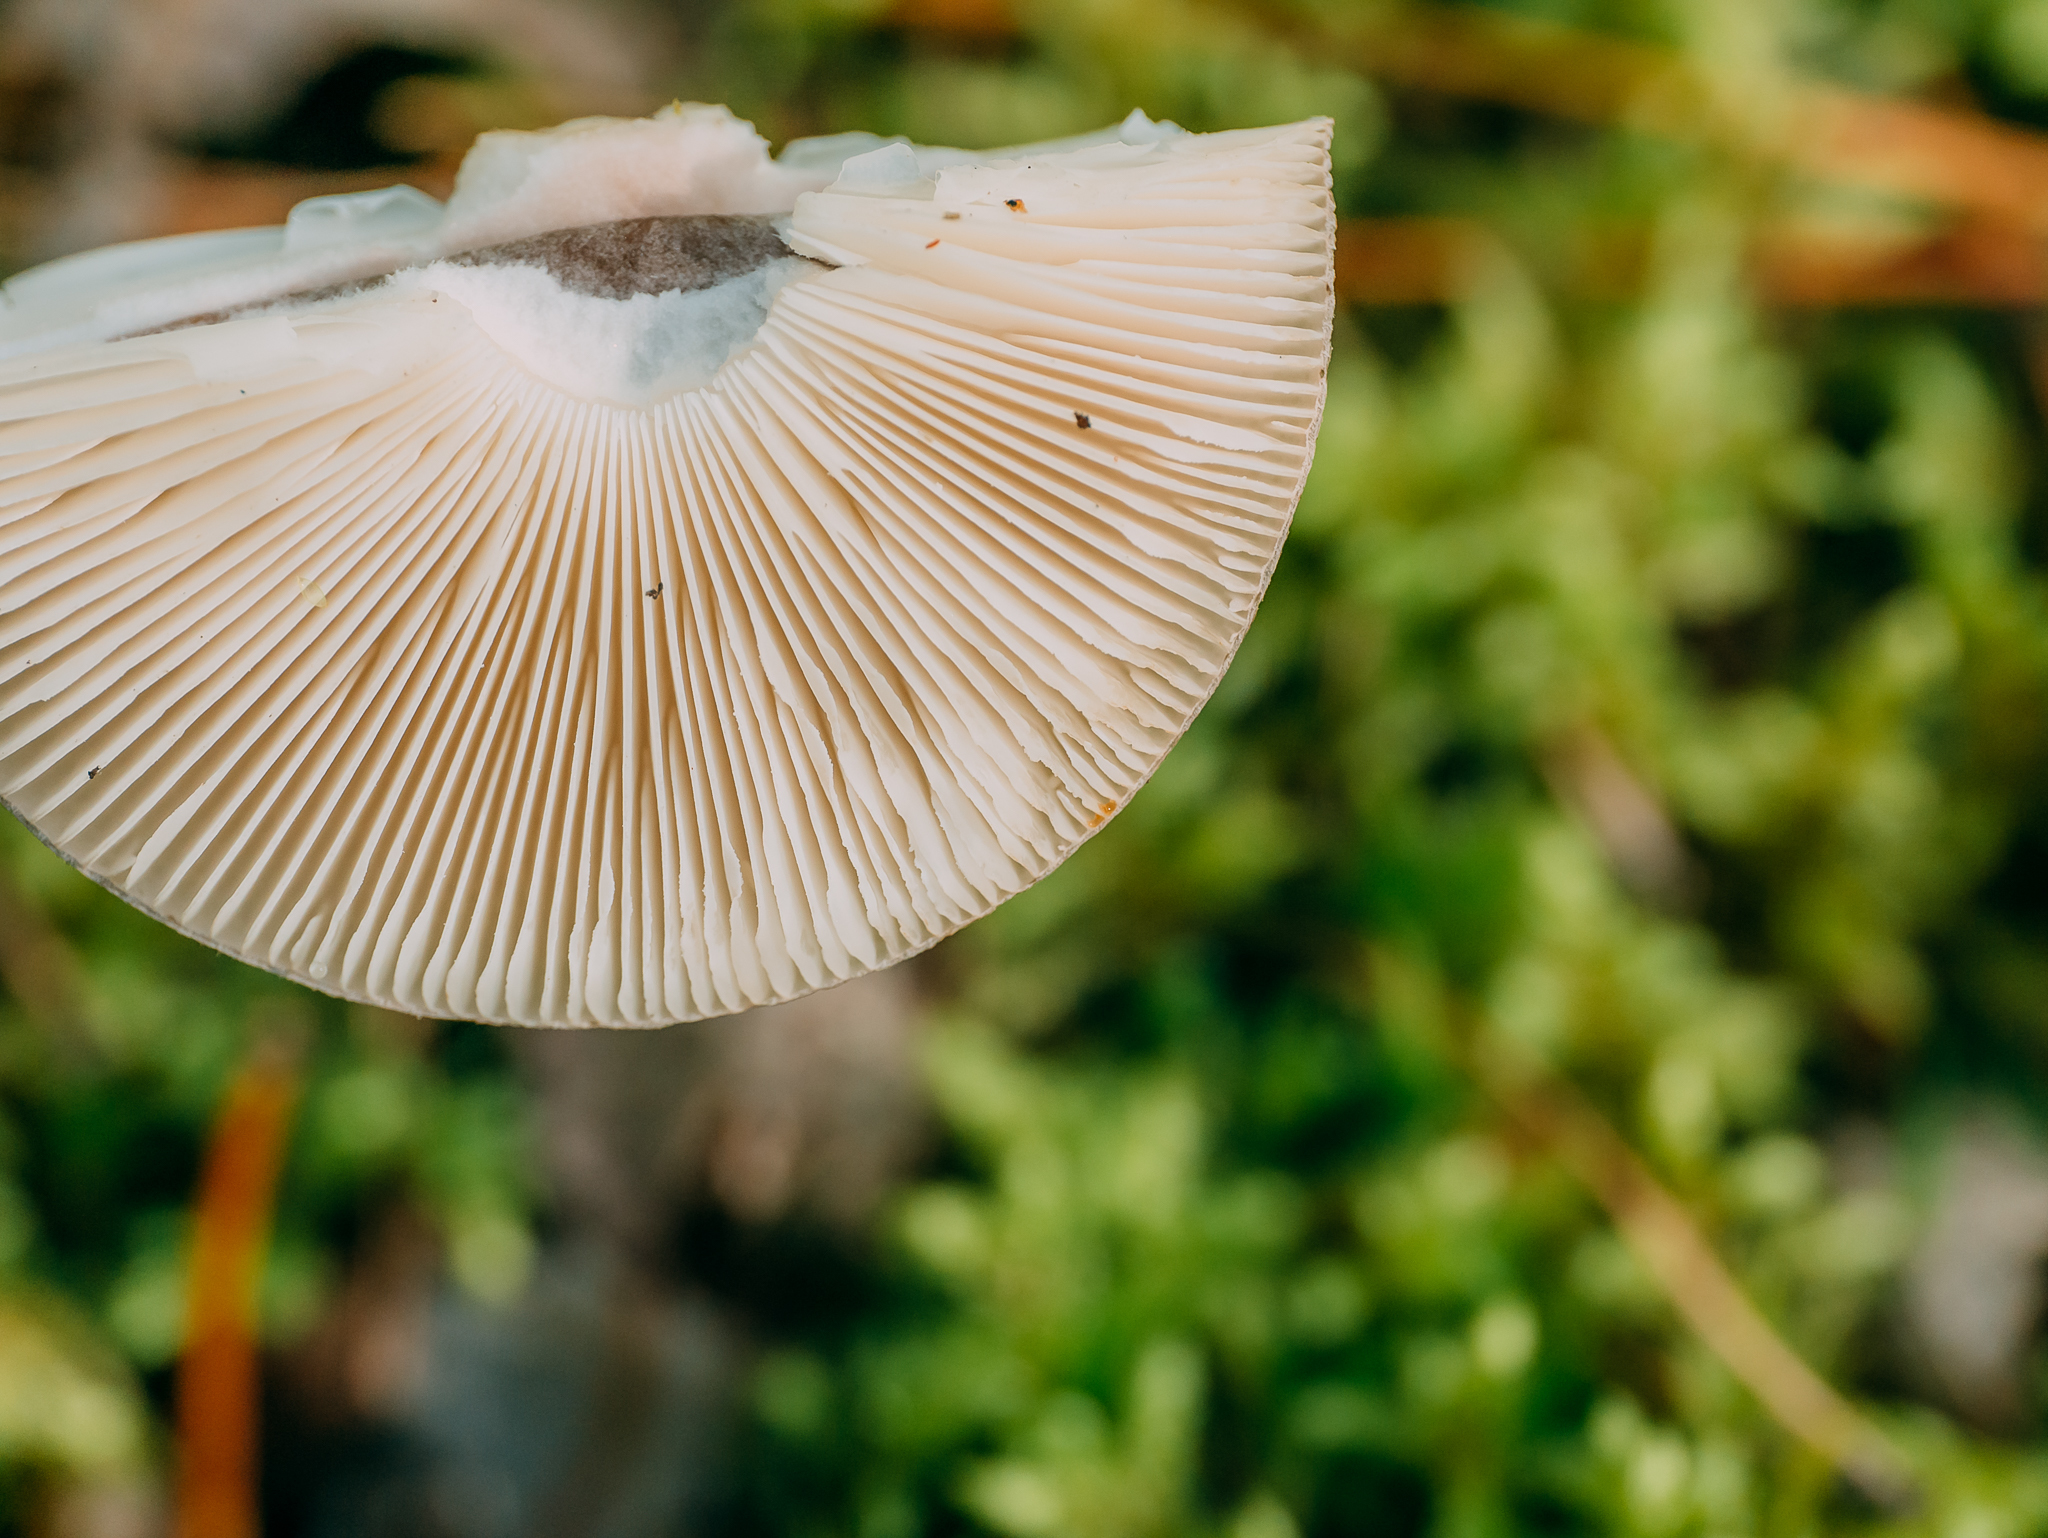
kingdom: Fungi
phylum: Basidiomycota
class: Agaricomycetes
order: Agaricales
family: Amanitaceae
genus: Amanita
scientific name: Amanita porphyria
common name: Grey veiled amanita
